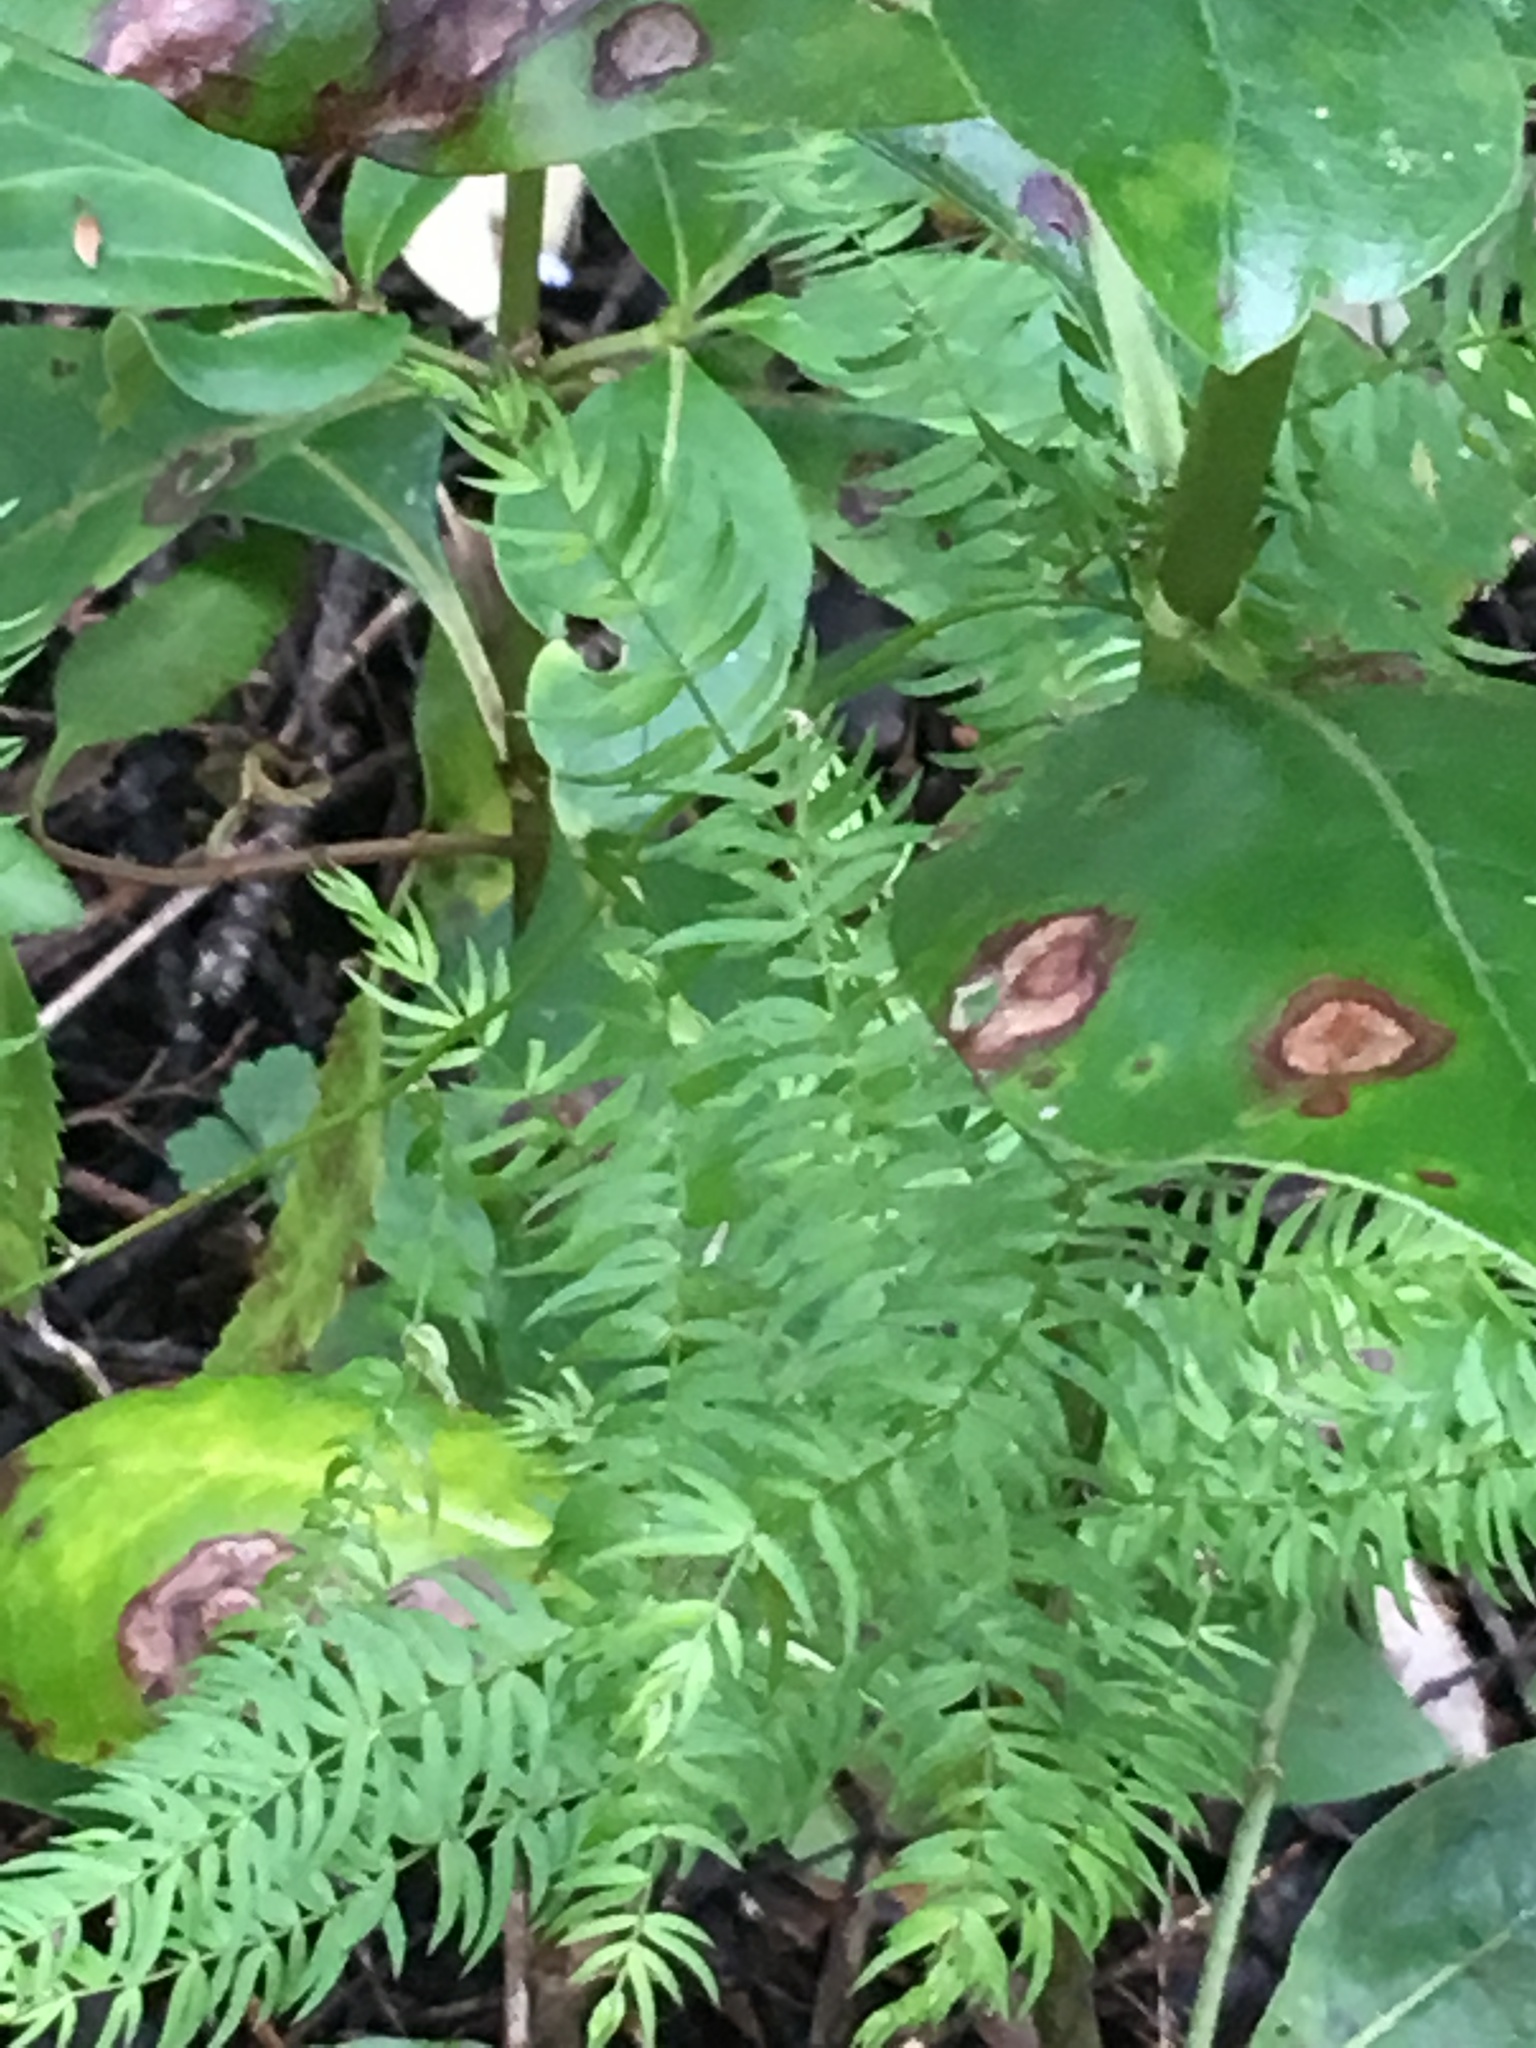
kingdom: Plantae
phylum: Tracheophyta
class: Liliopsida
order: Asparagales
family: Asparagaceae
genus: Asparagus
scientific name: Asparagus scandens
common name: Asparagus-fern
